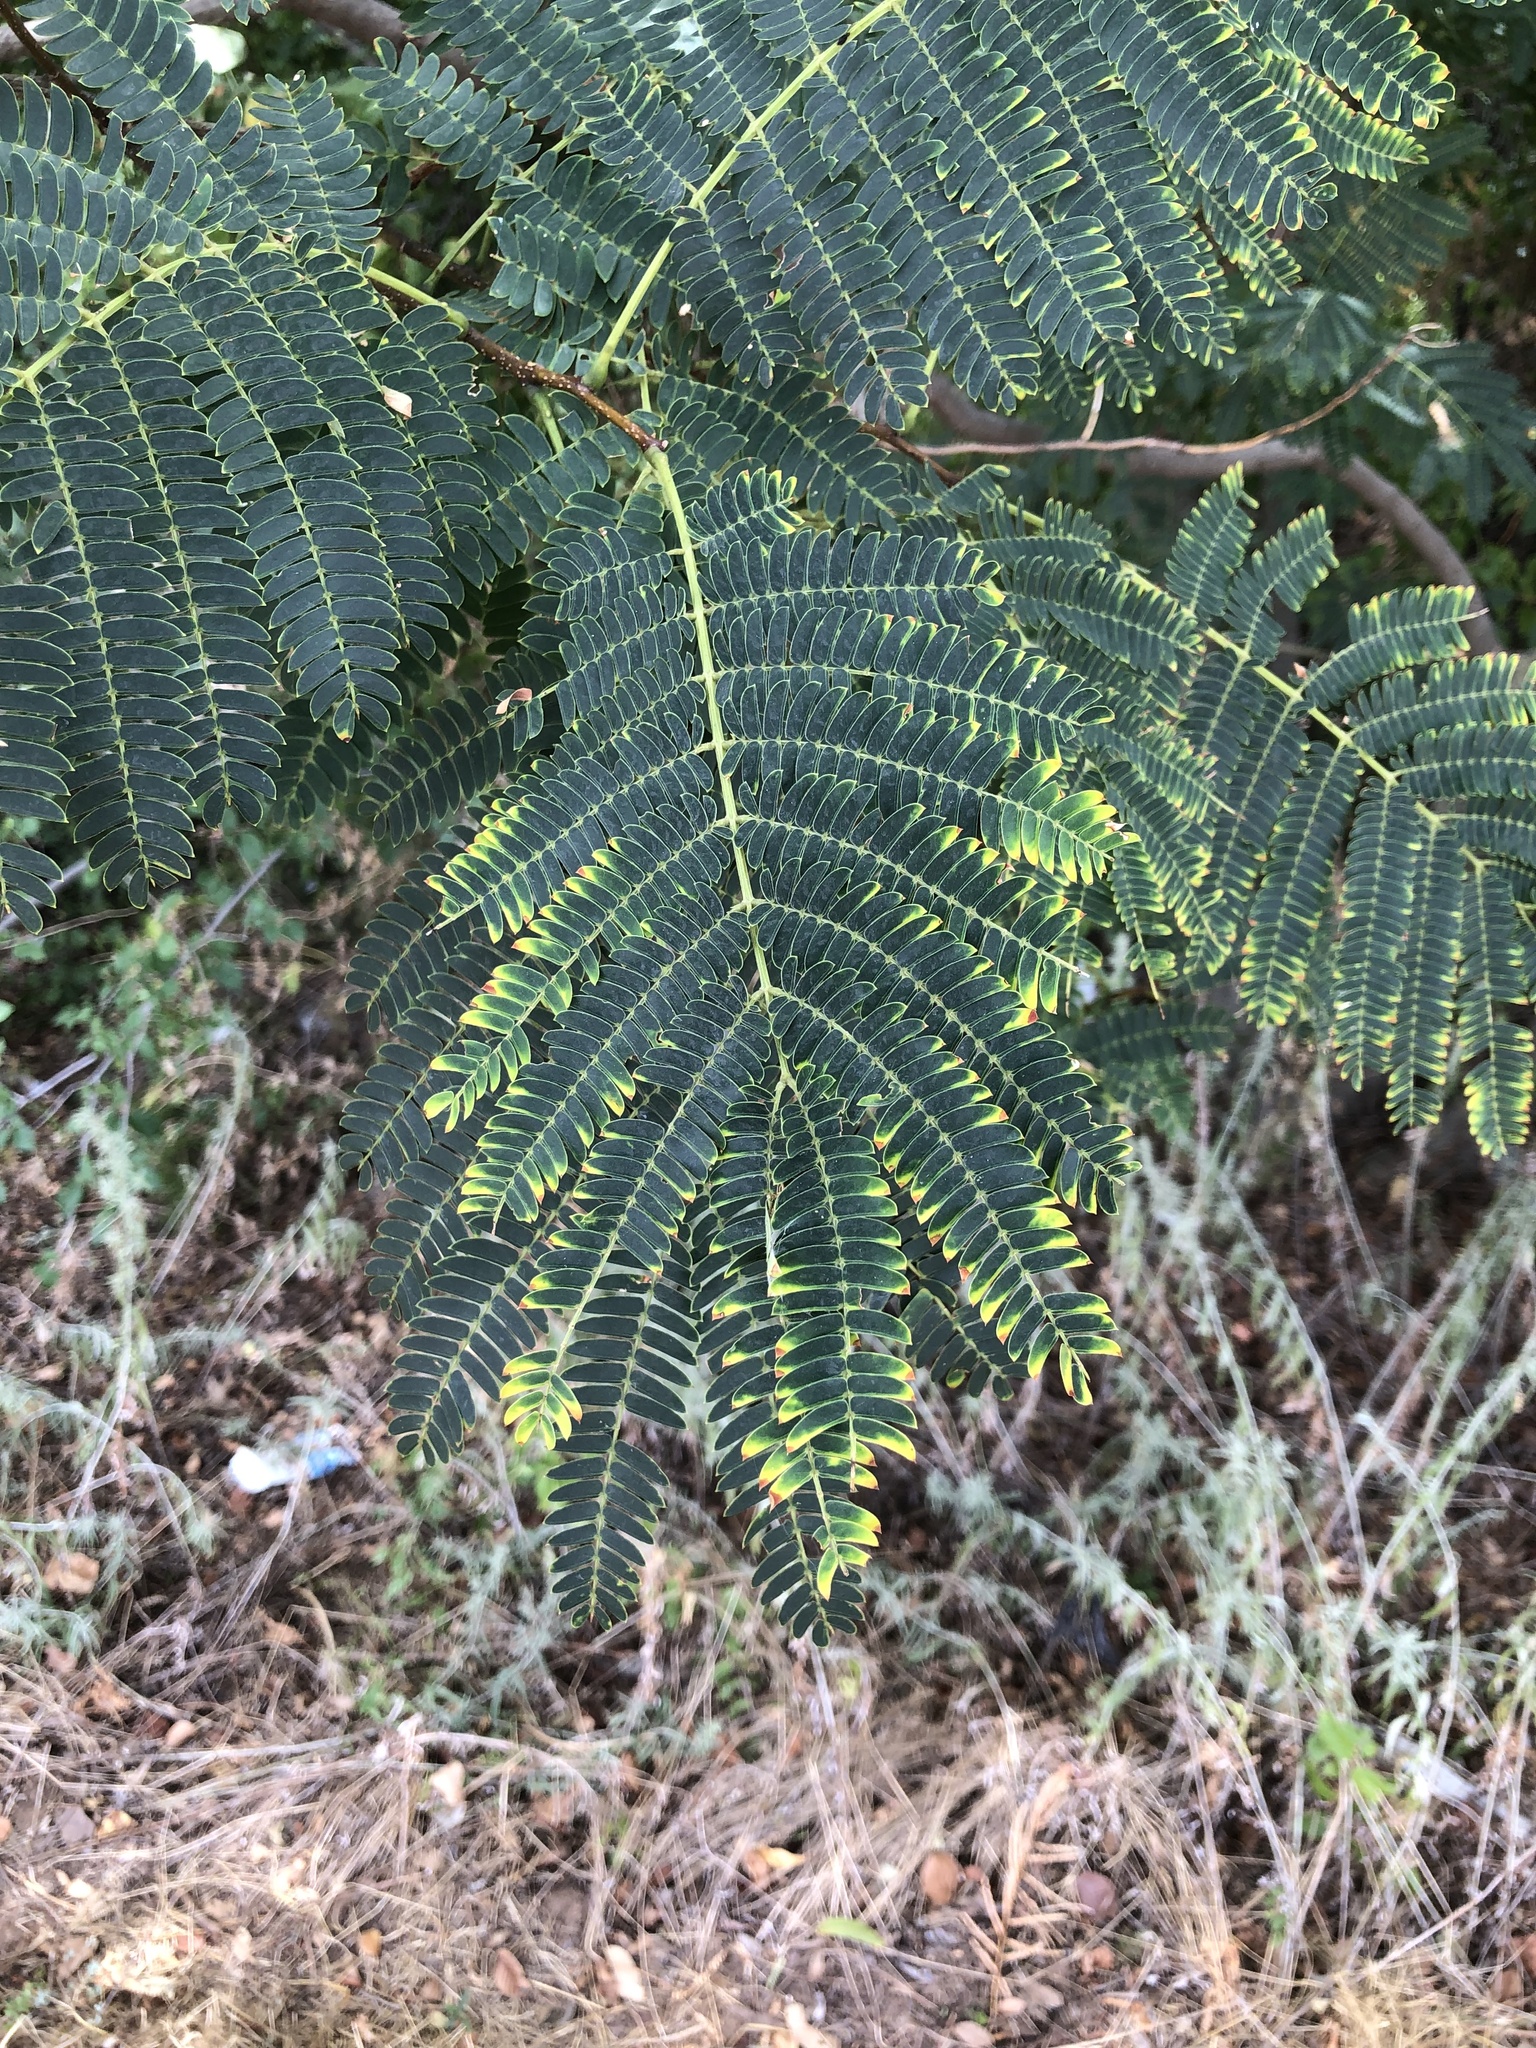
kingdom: Plantae
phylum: Tracheophyta
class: Magnoliopsida
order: Fabales
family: Fabaceae
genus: Albizia
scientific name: Albizia julibrissin
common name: Silktree
